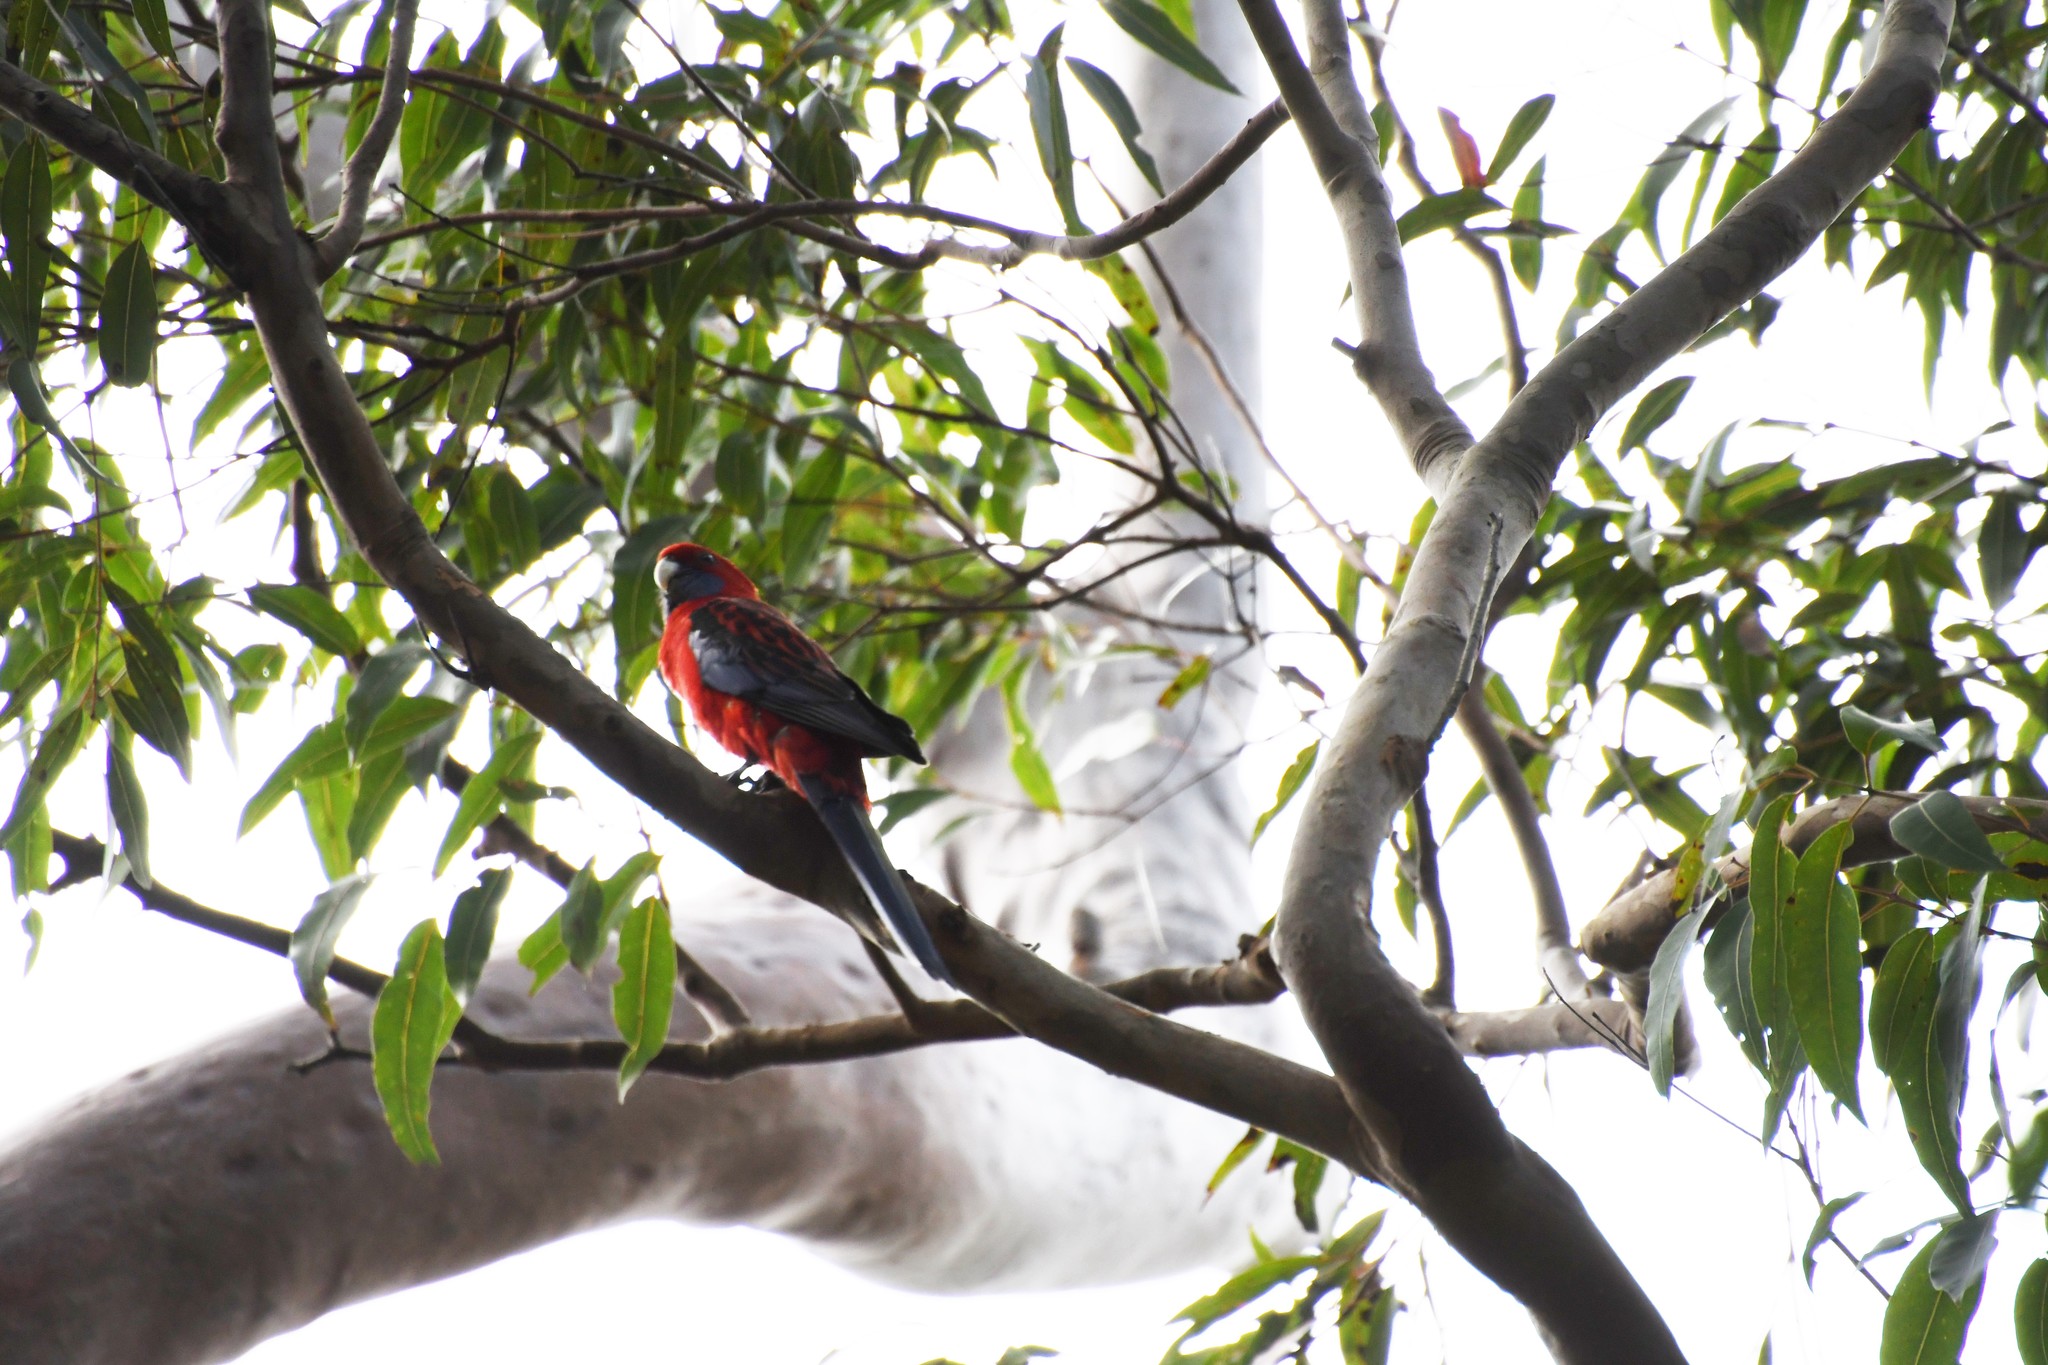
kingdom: Animalia
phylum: Chordata
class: Aves
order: Psittaciformes
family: Psittacidae
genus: Platycercus
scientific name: Platycercus elegans
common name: Crimson rosella
